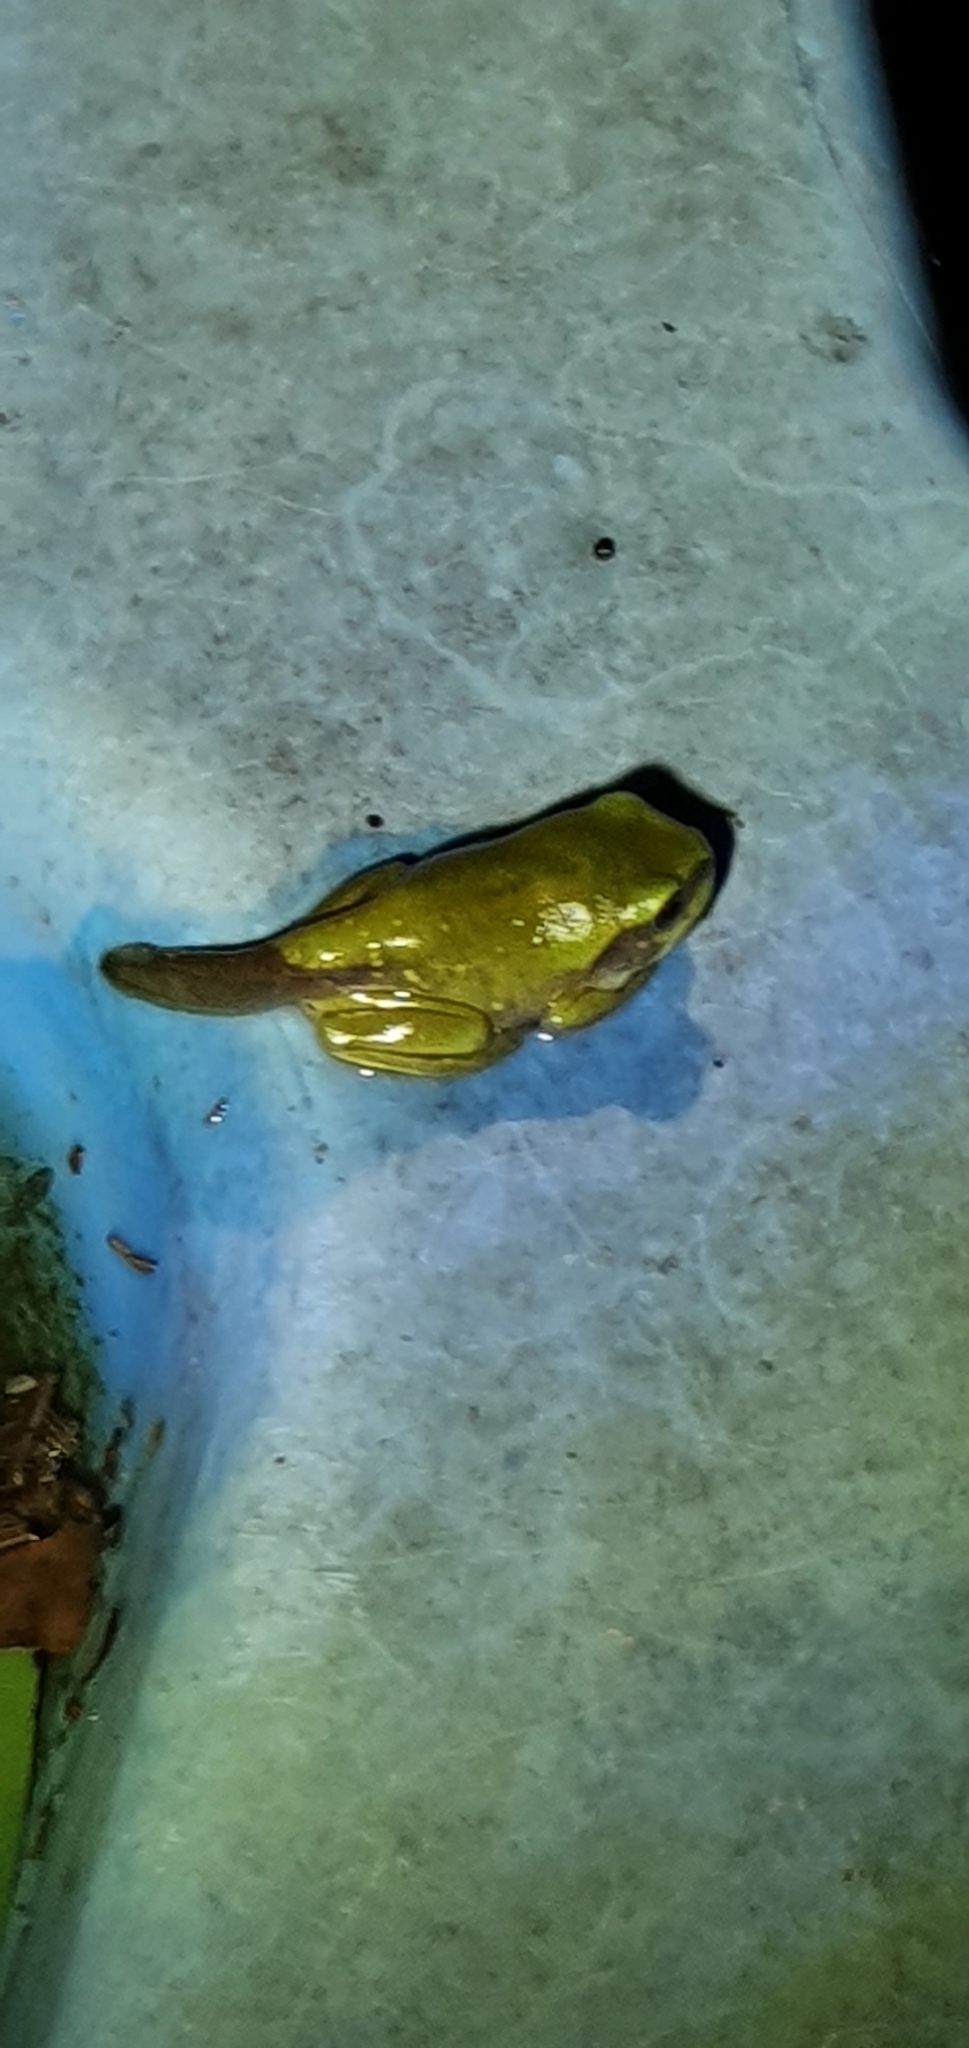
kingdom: Animalia
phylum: Chordata
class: Amphibia
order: Anura
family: Pelodryadidae
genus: Ranoidea
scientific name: Ranoidea caerulea
